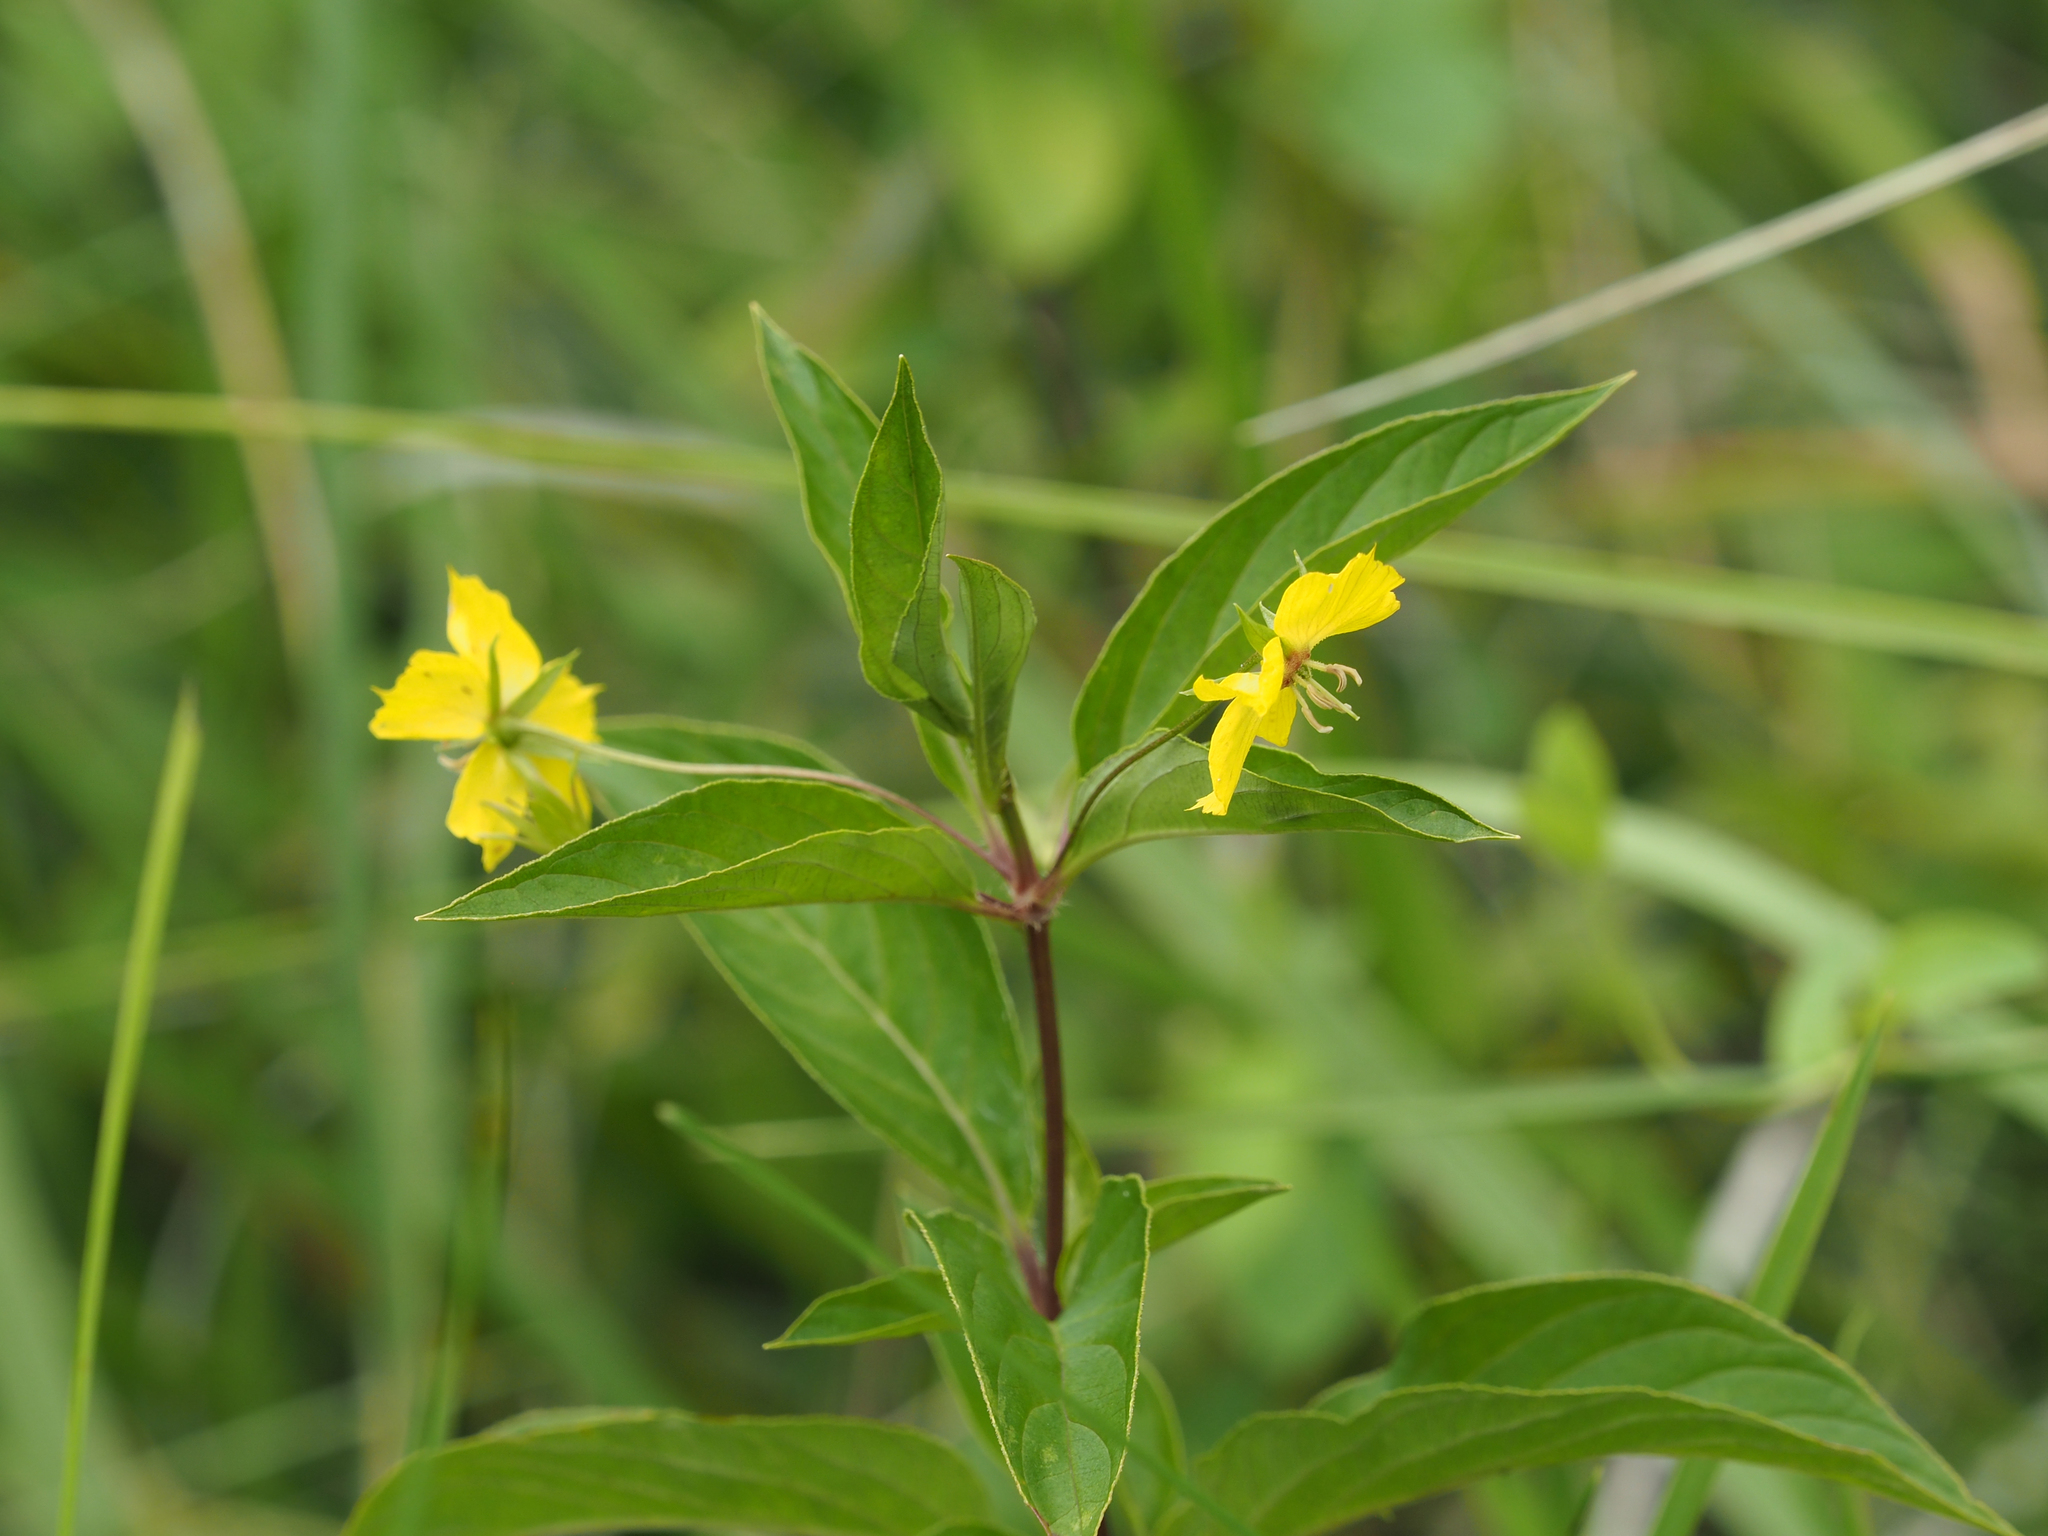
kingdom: Plantae
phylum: Tracheophyta
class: Magnoliopsida
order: Ericales
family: Primulaceae
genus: Lysimachia
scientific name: Lysimachia ciliata
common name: Fringed loosestrife
